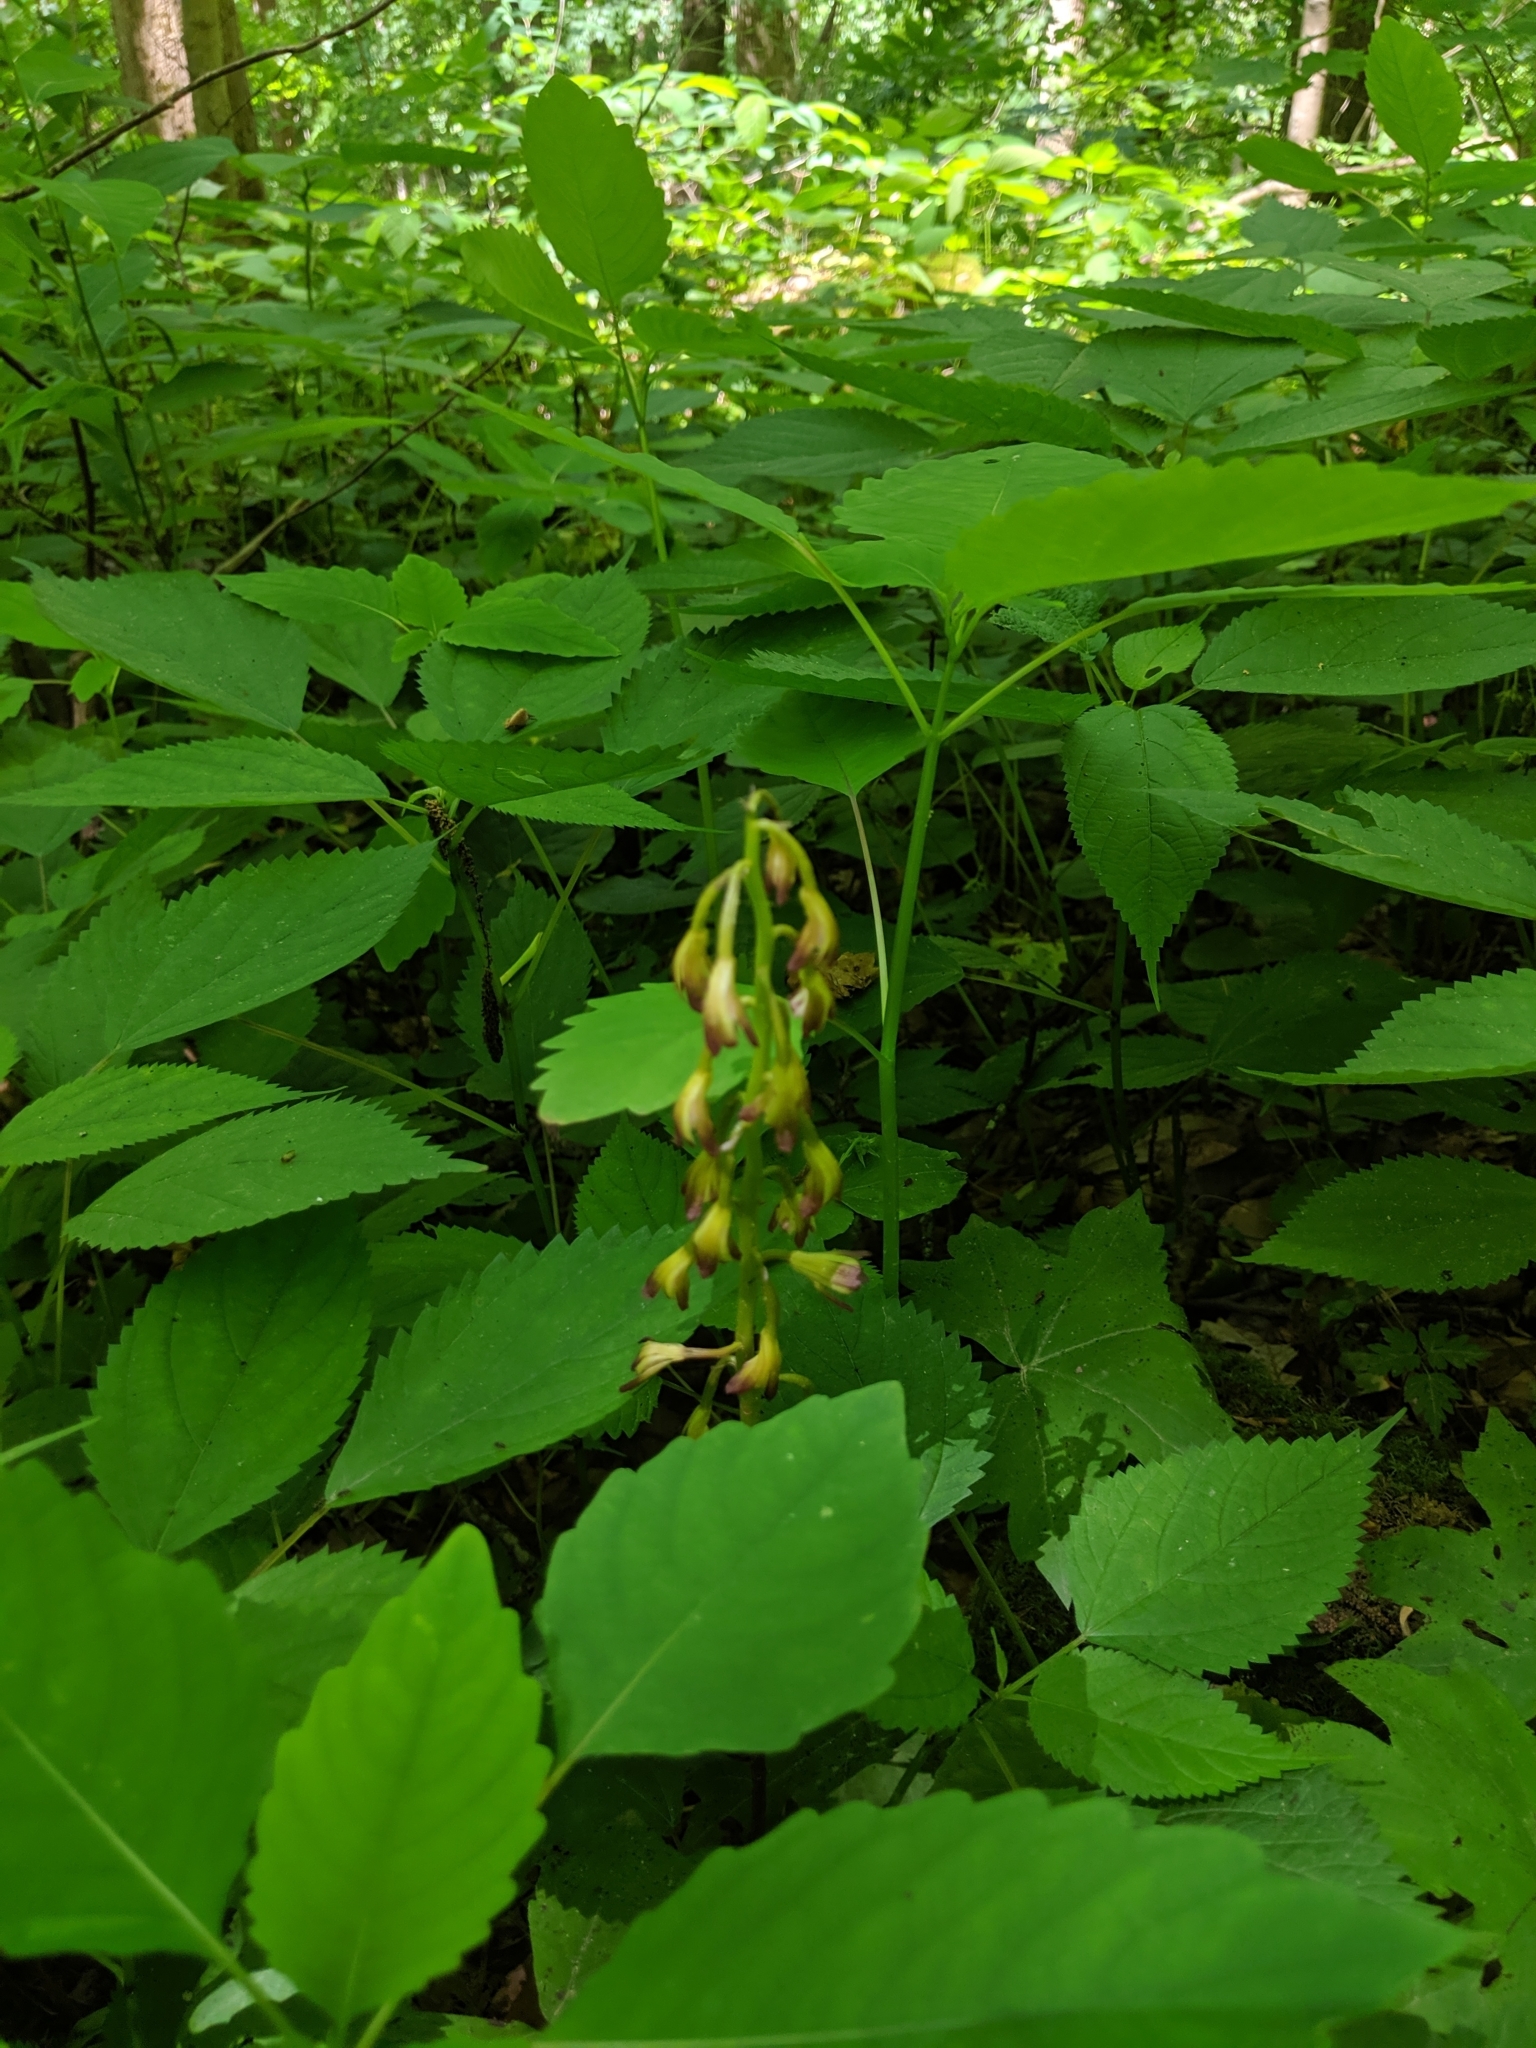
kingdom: Plantae
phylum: Tracheophyta
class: Liliopsida
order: Asparagales
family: Orchidaceae
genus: Aplectrum
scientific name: Aplectrum hyemale
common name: Adam-and-eve
